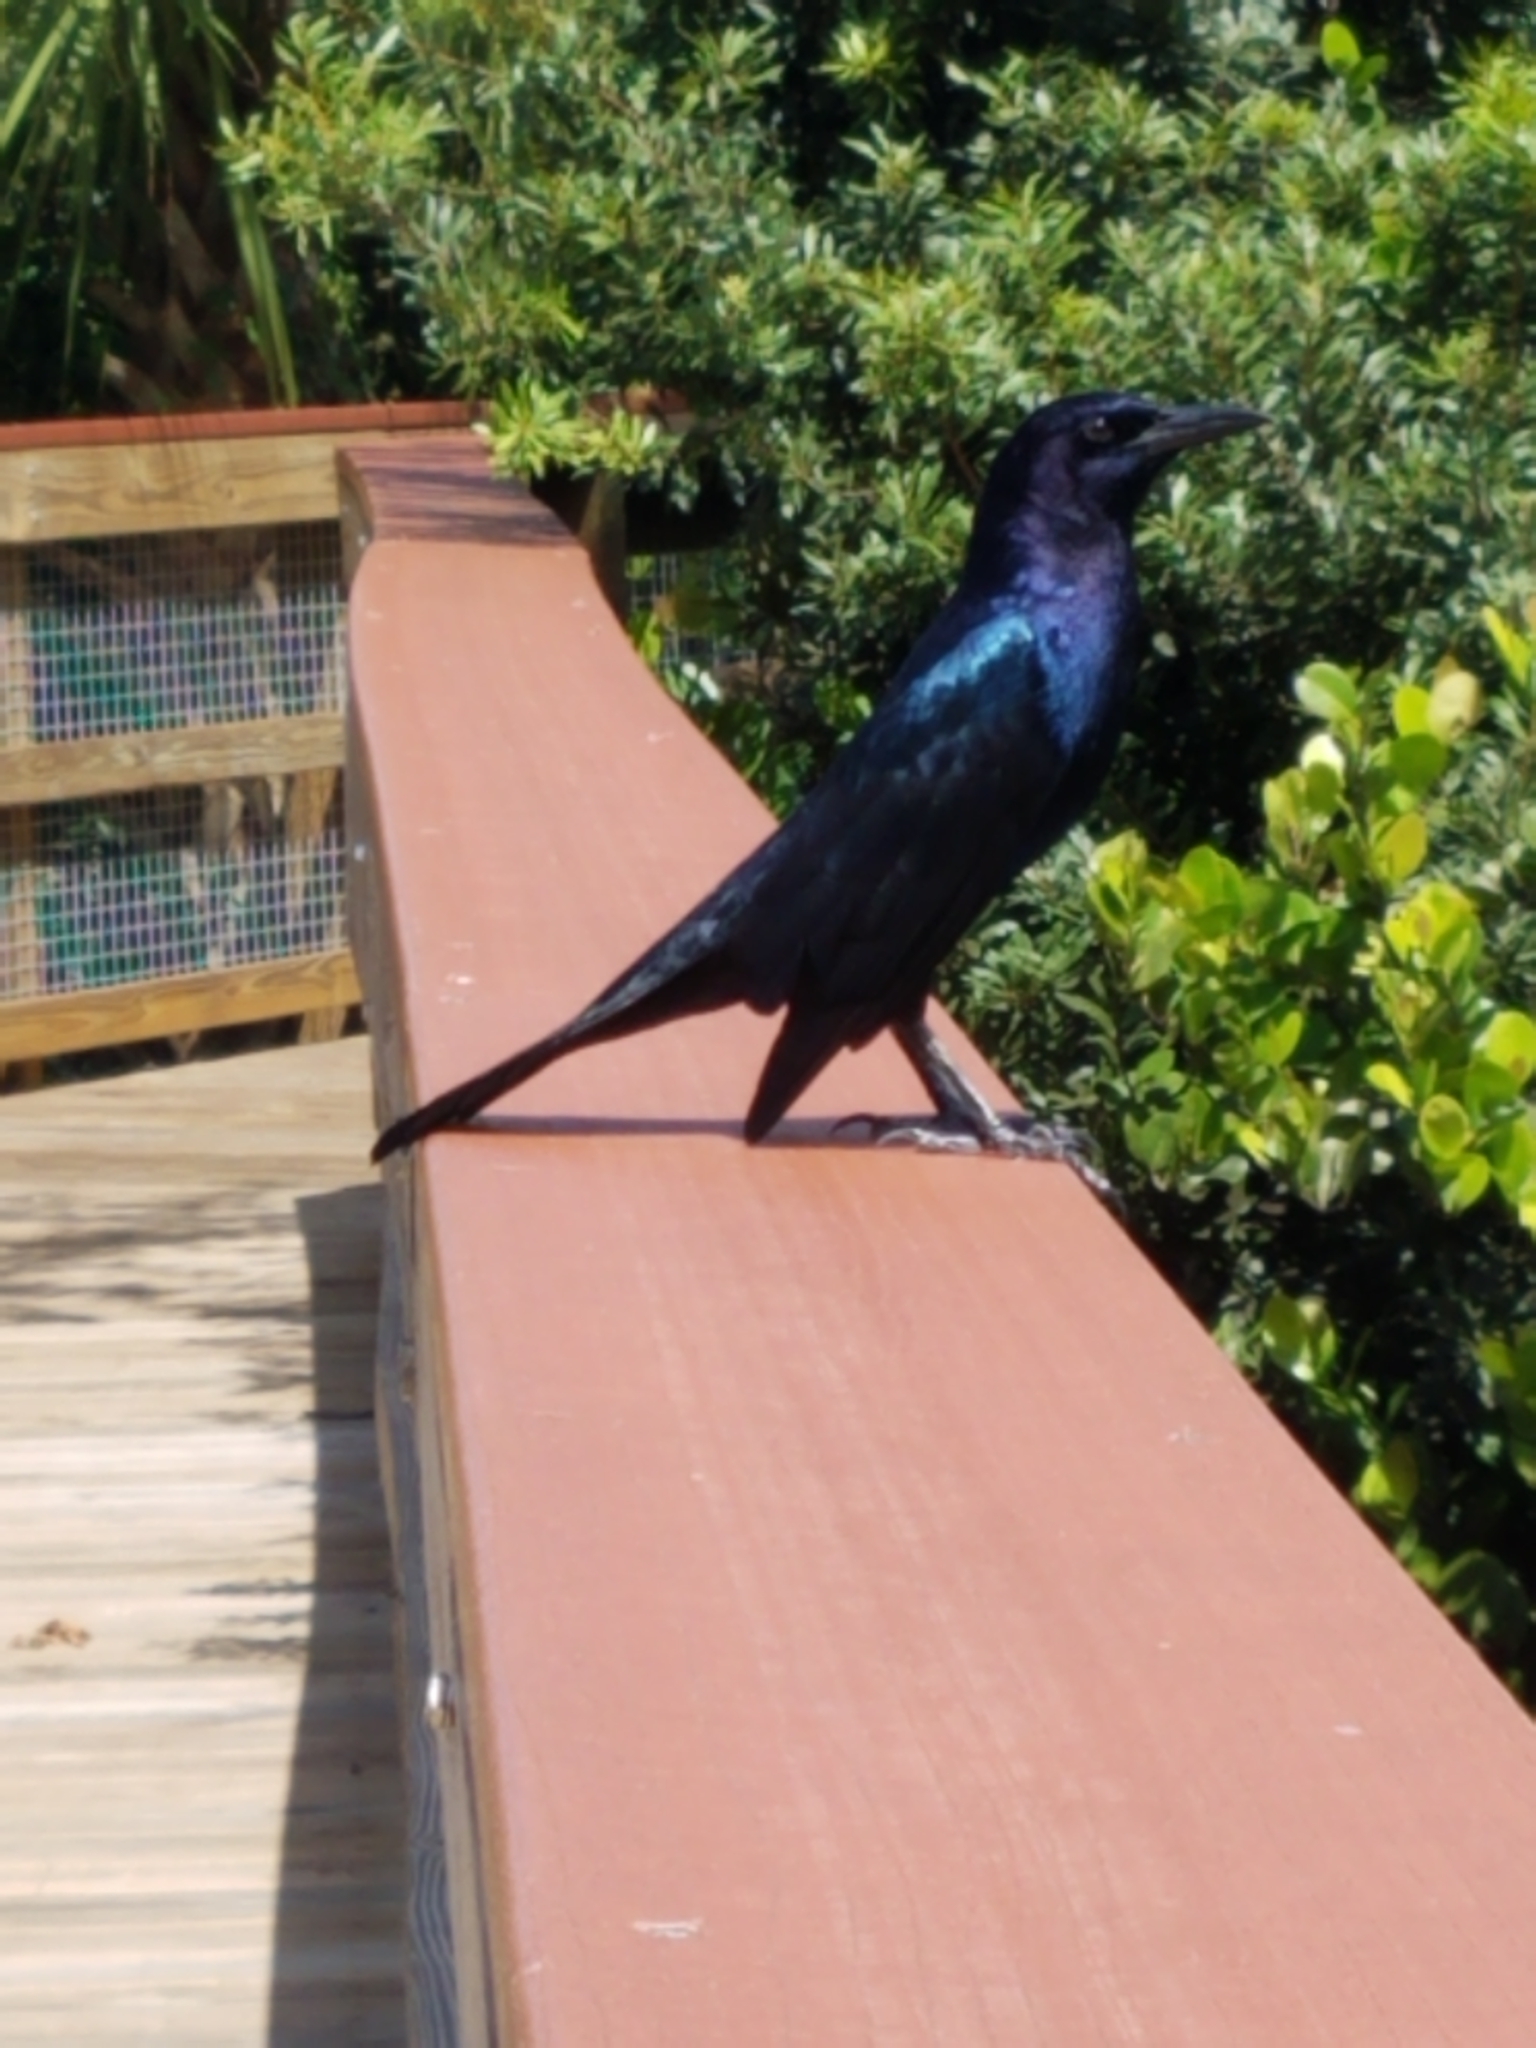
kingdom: Animalia
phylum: Chordata
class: Aves
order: Passeriformes
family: Icteridae
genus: Quiscalus
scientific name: Quiscalus major
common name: Boat-tailed grackle
